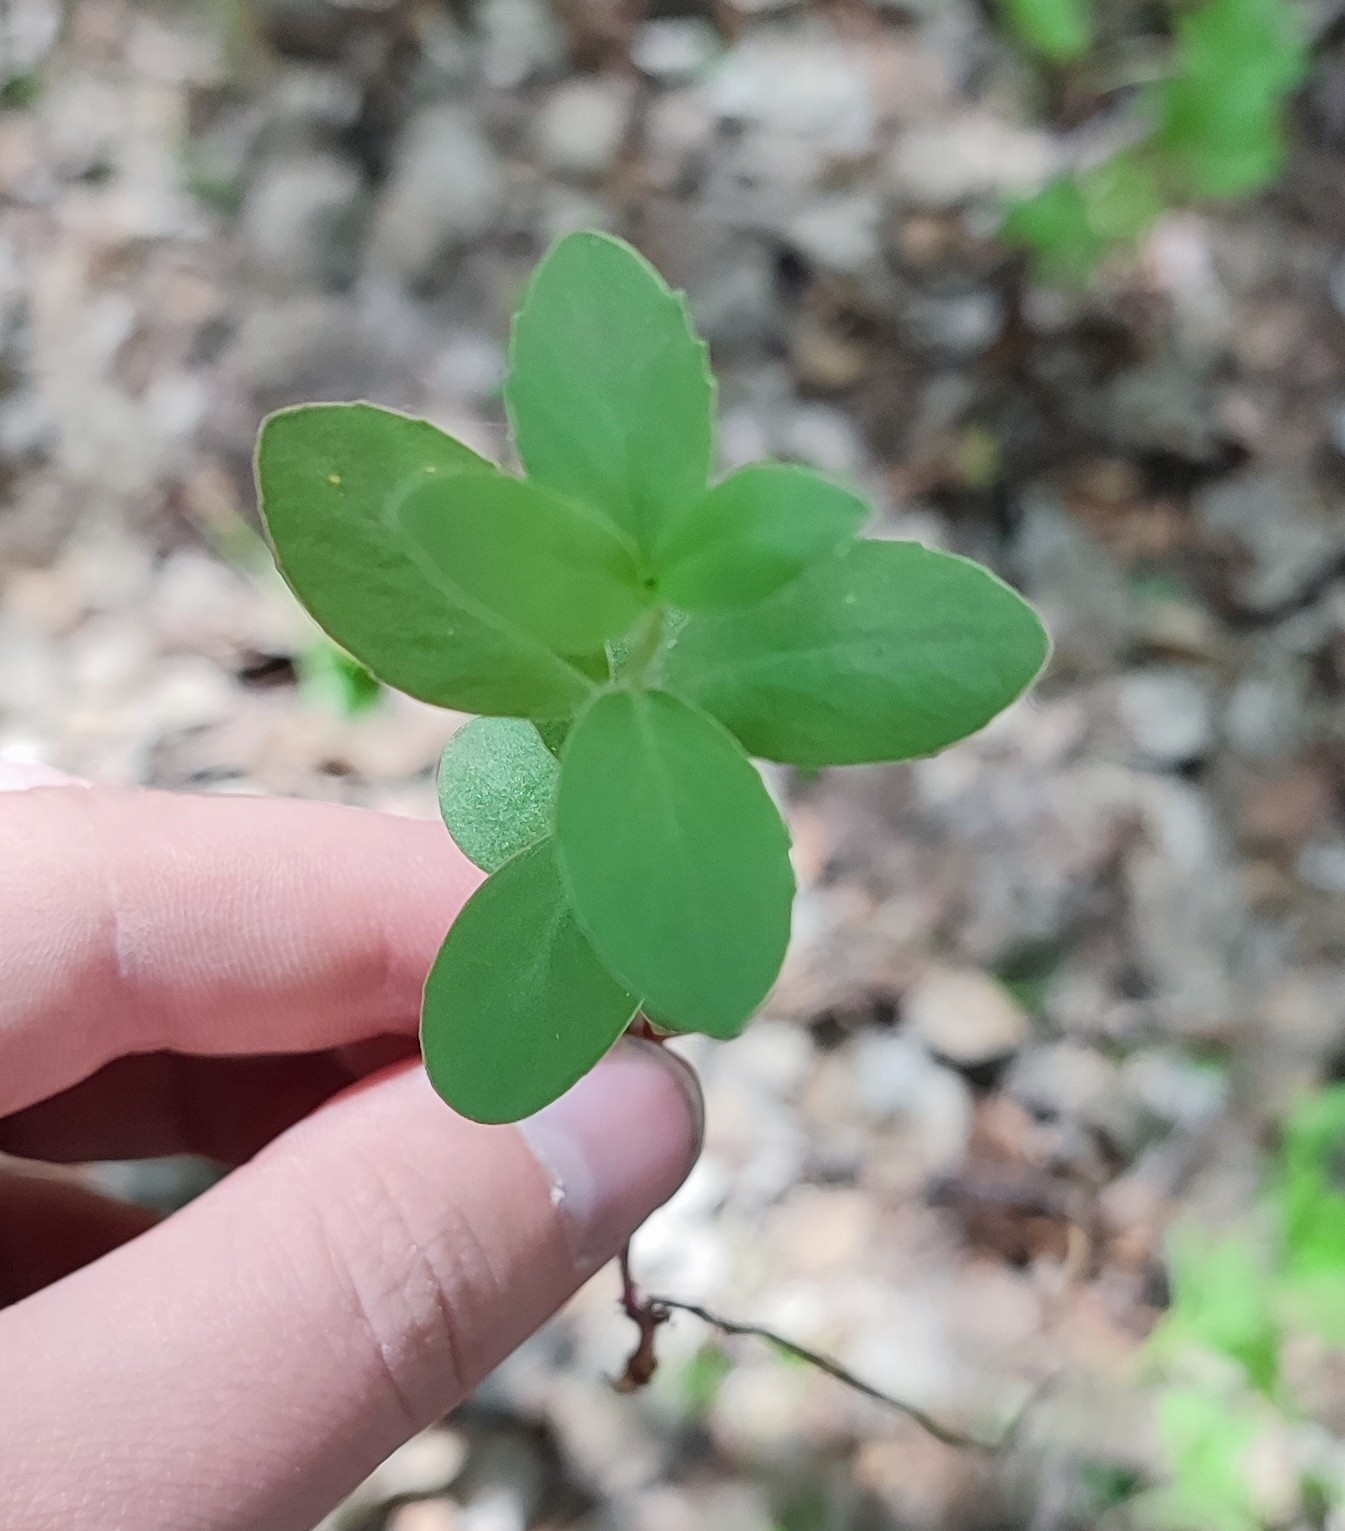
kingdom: Plantae
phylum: Tracheophyta
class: Magnoliopsida
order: Saxifragales
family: Crassulaceae
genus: Hylotelephium
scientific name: Hylotelephium telephium
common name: Live-forever
